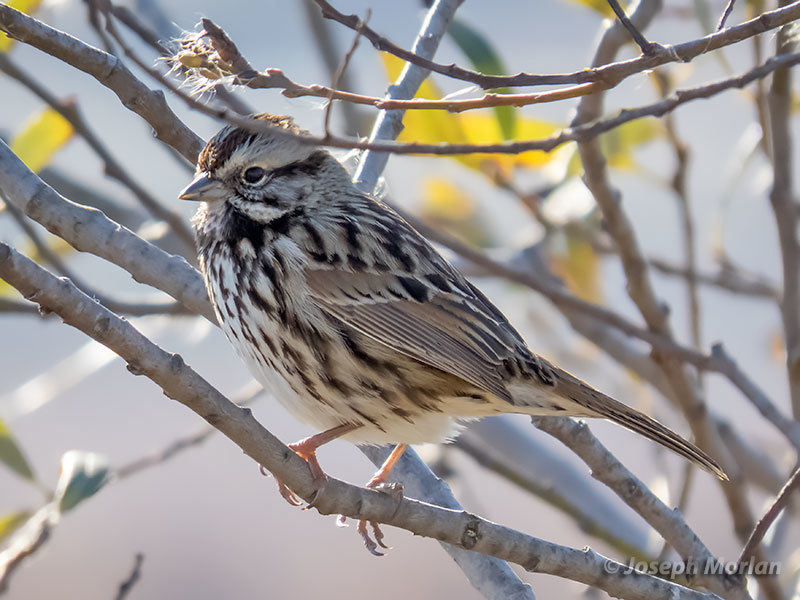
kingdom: Animalia
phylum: Chordata
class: Aves
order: Passeriformes
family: Passerellidae
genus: Melospiza
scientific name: Melospiza melodia
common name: Song sparrow
